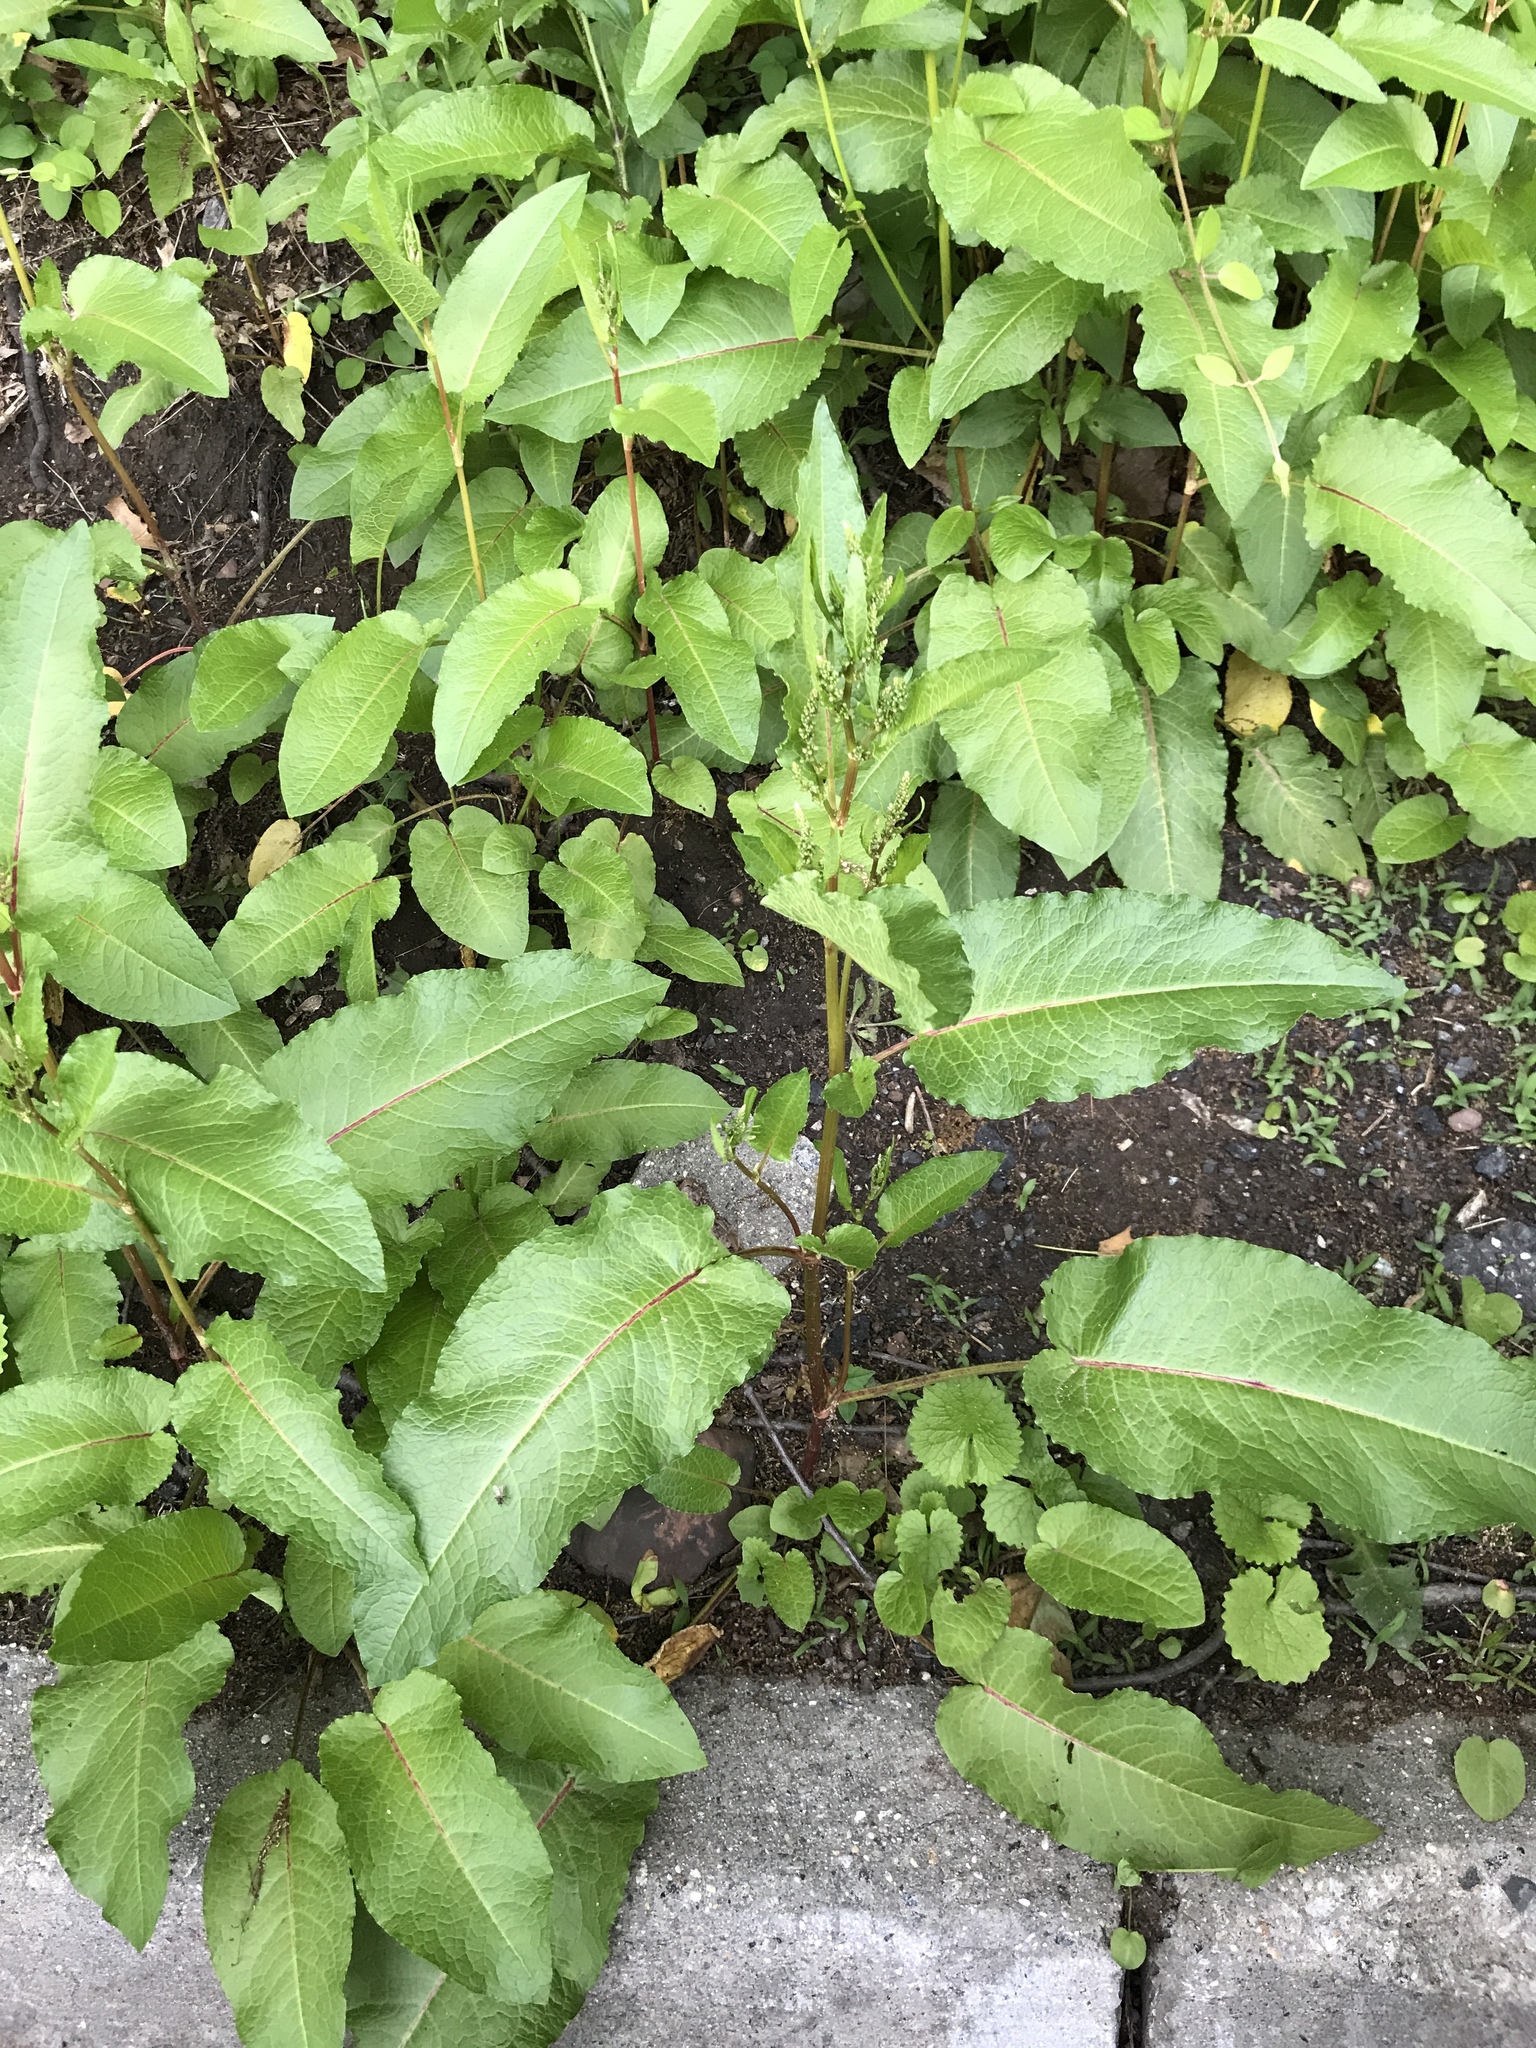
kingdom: Plantae
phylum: Tracheophyta
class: Magnoliopsida
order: Caryophyllales
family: Polygonaceae
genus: Rumex
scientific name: Rumex obtusifolius
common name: Bitter dock
